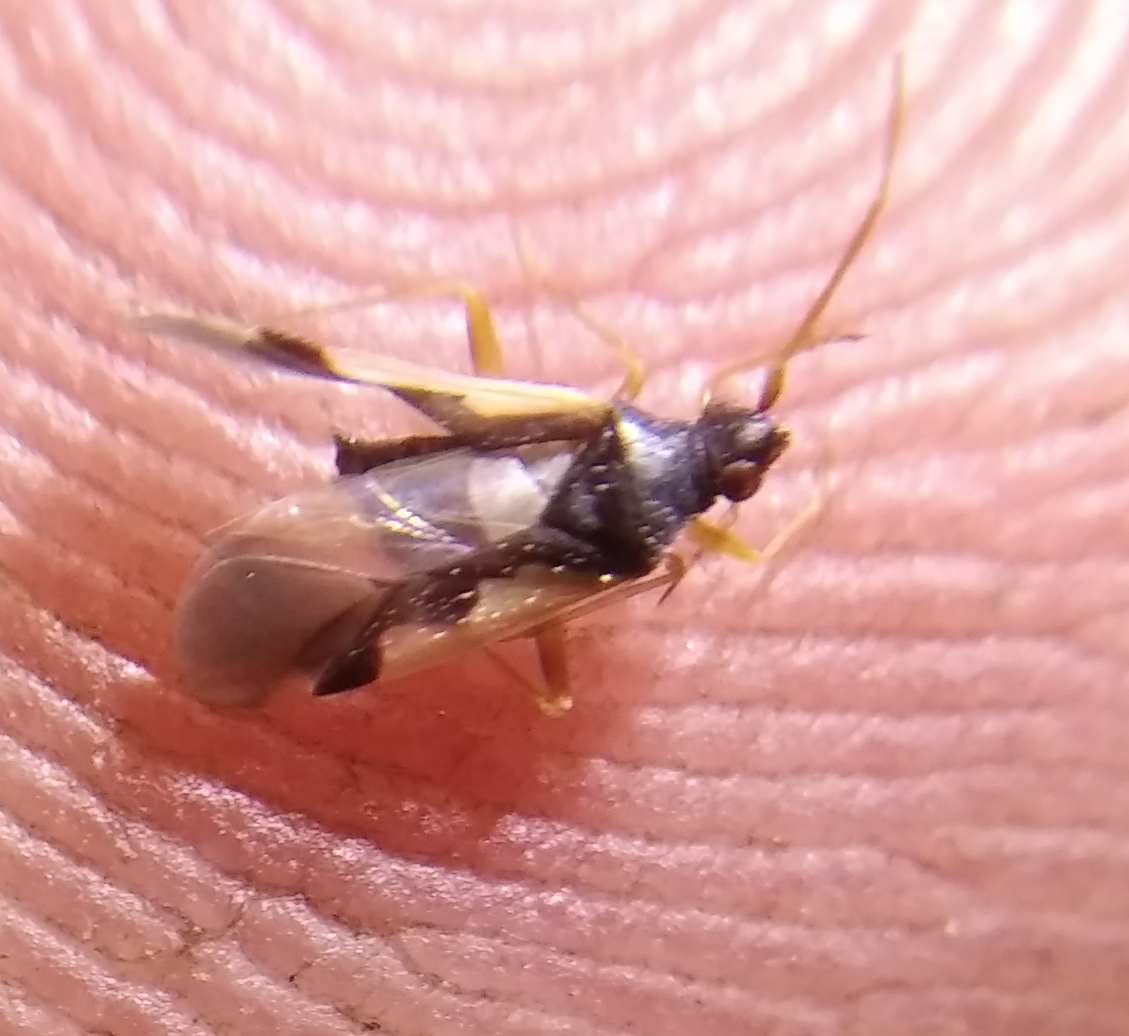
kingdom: Animalia
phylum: Arthropoda
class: Insecta
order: Hemiptera
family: Miridae
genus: Hallodapus
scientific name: Hallodapus suturalis
